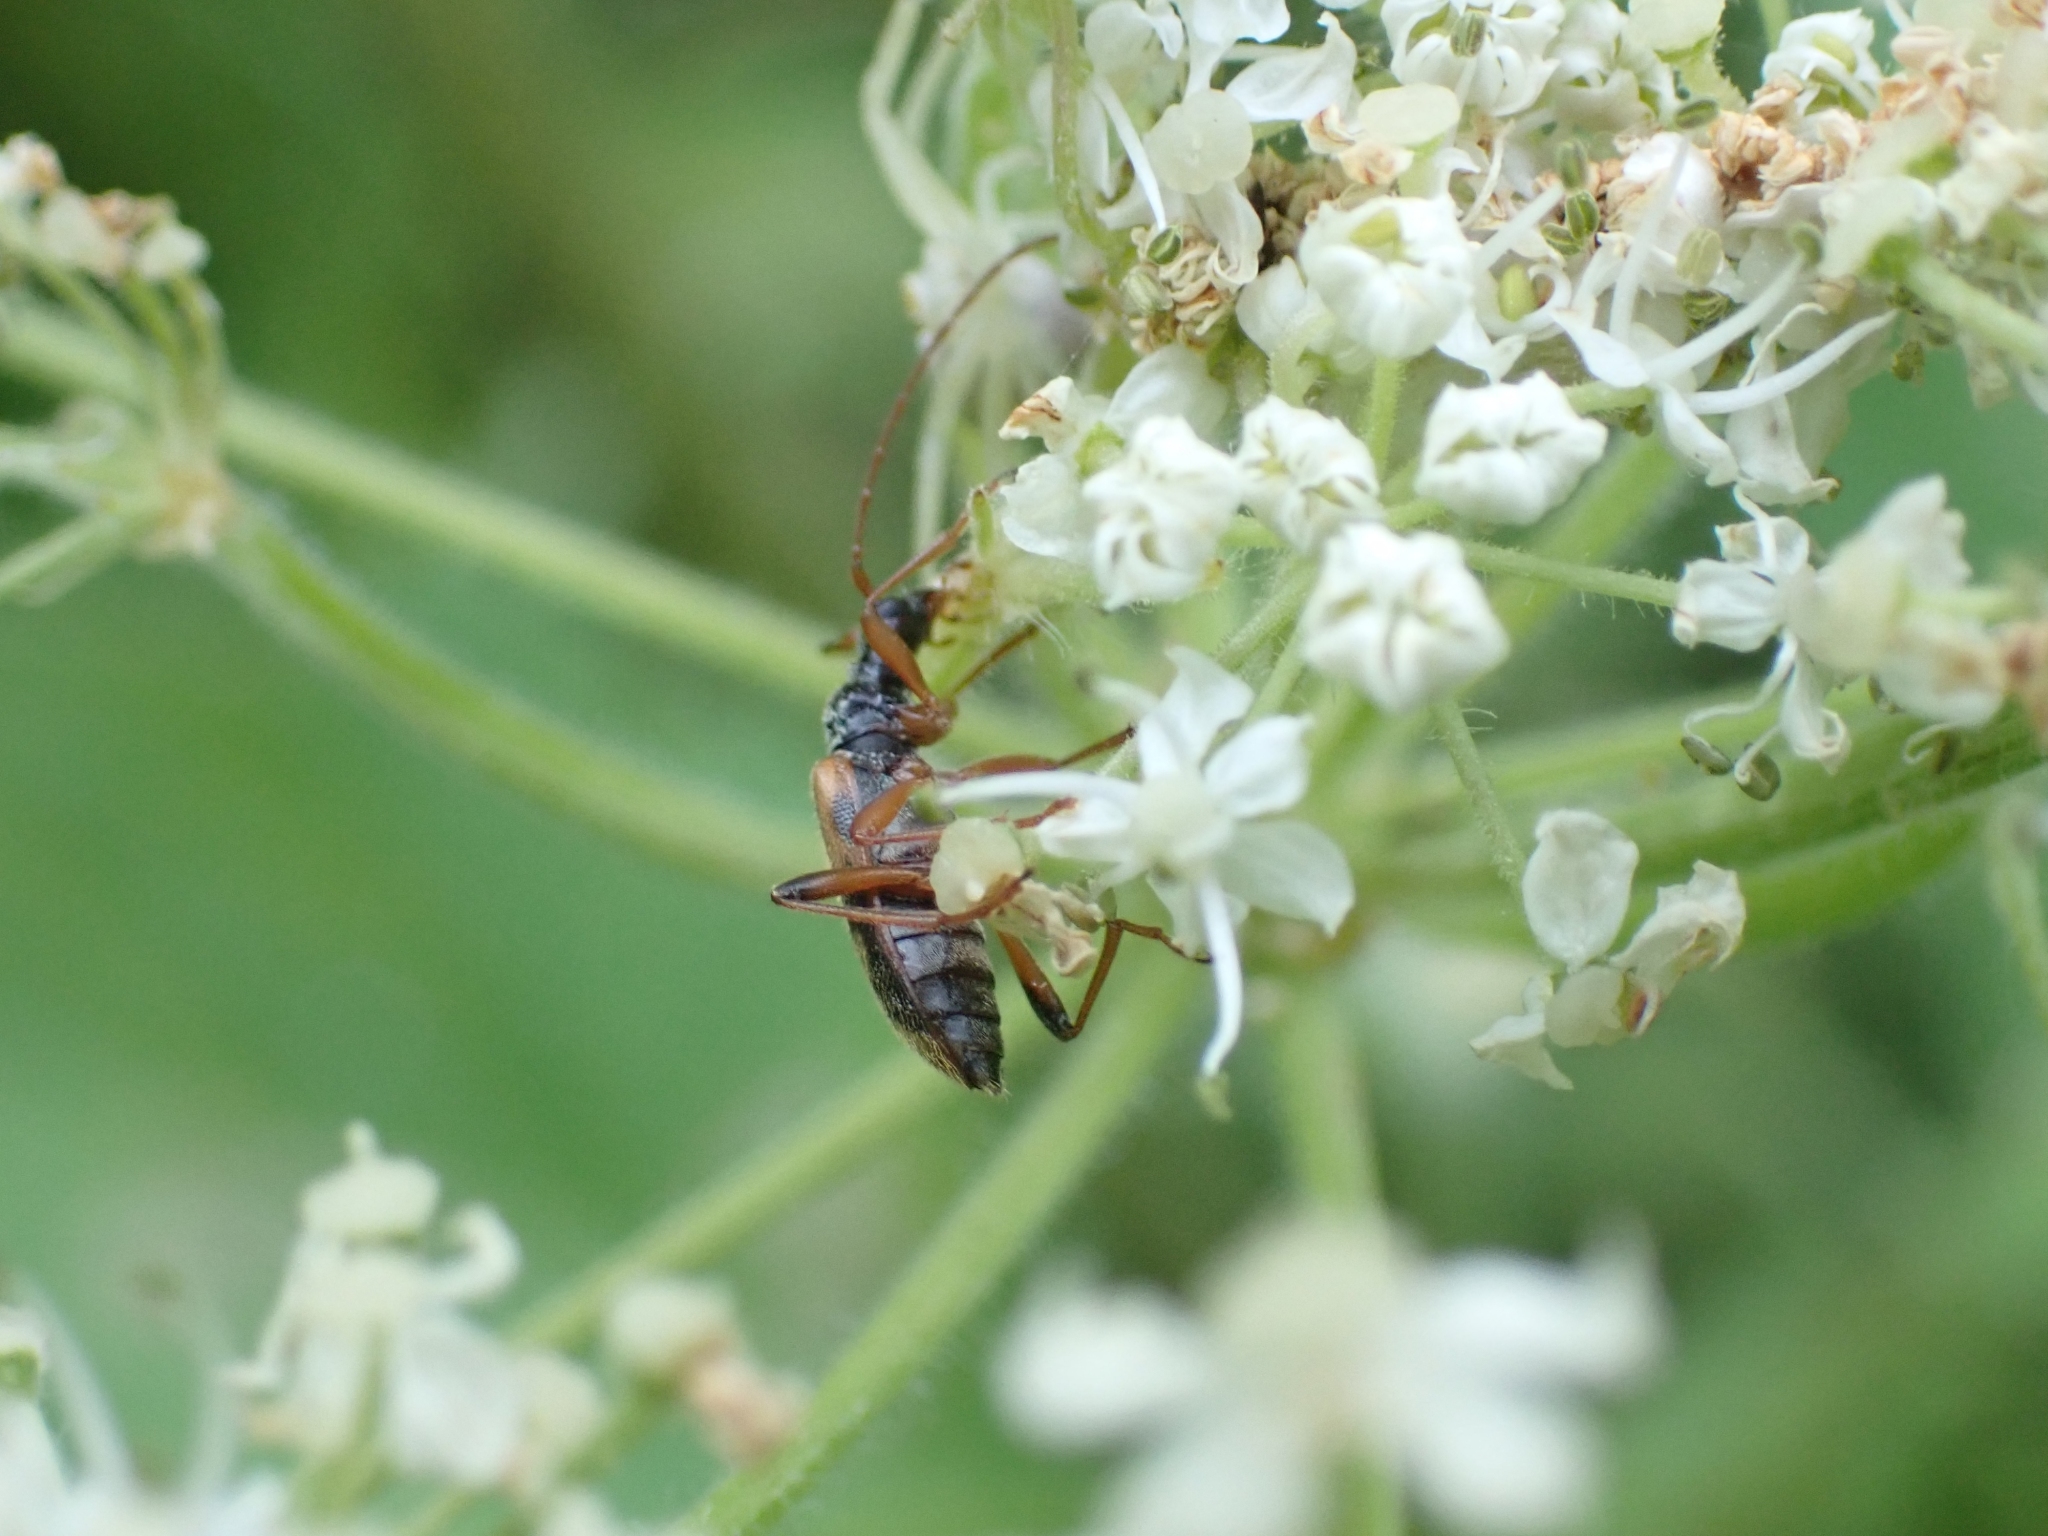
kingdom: Animalia
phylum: Arthropoda
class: Insecta
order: Coleoptera
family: Cerambycidae
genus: Pidonia
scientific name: Pidonia scripta
